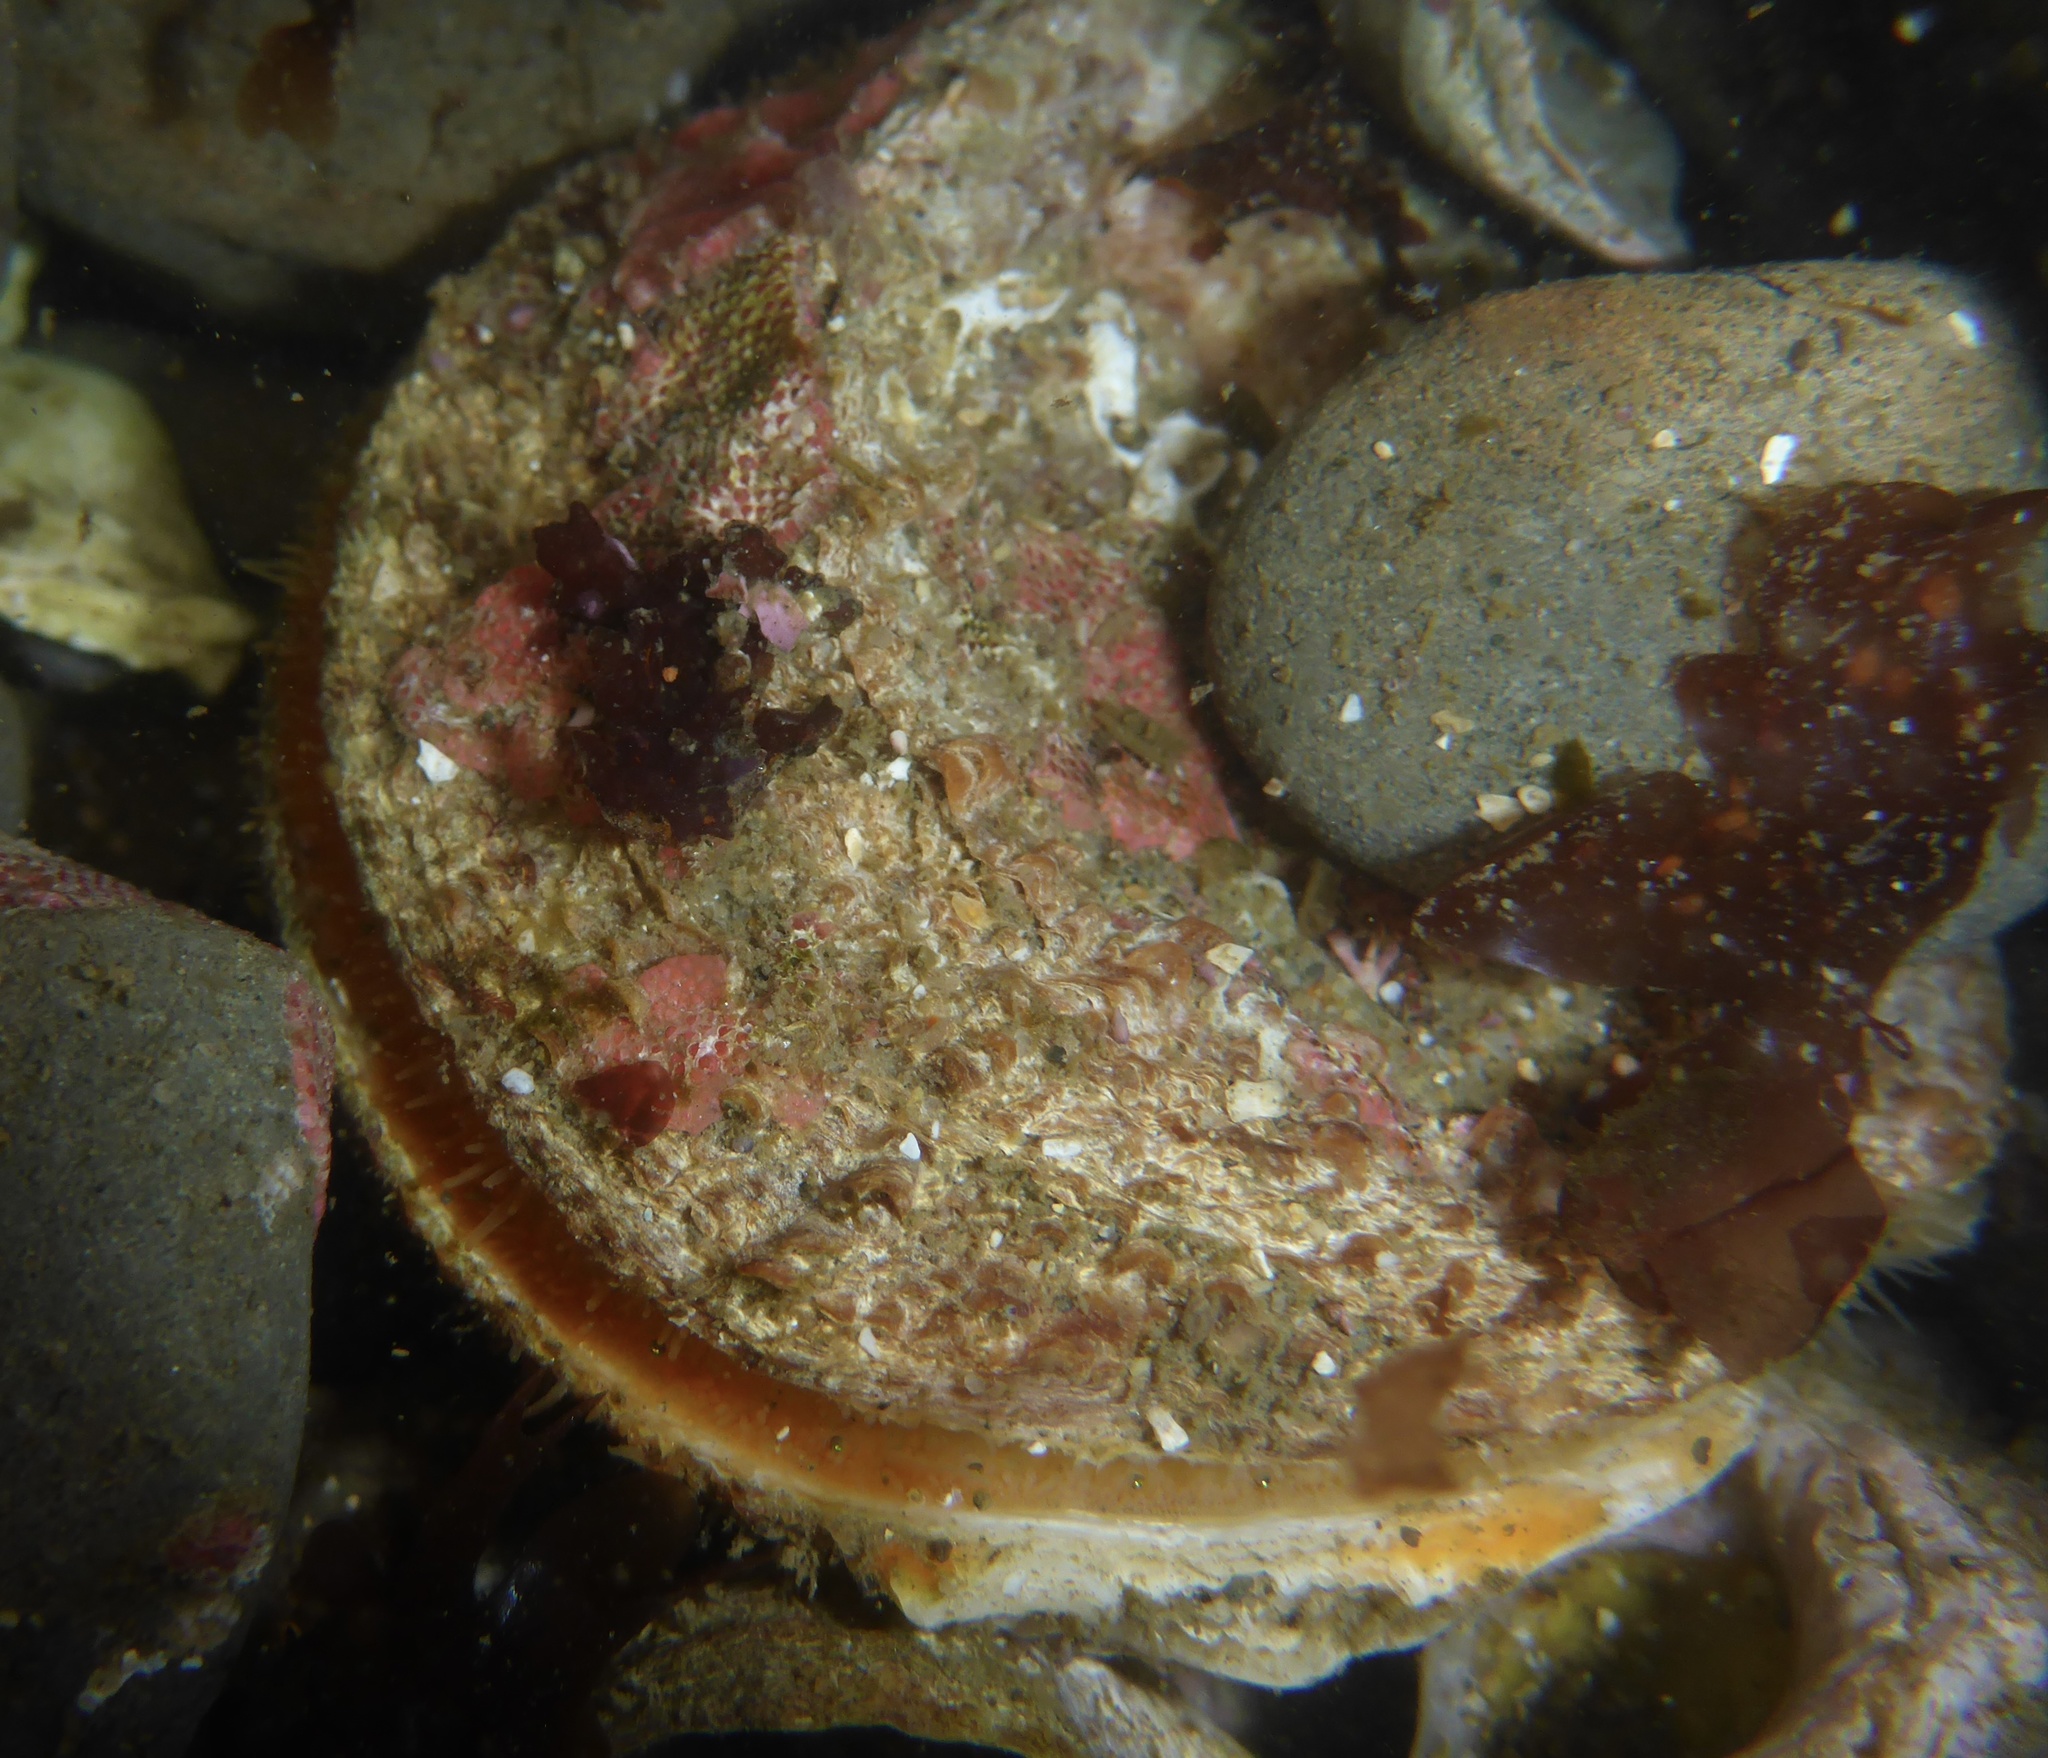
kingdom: Animalia
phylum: Mollusca
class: Bivalvia
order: Pectinida
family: Pectinidae
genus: Crassadoma
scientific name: Crassadoma gigantea
